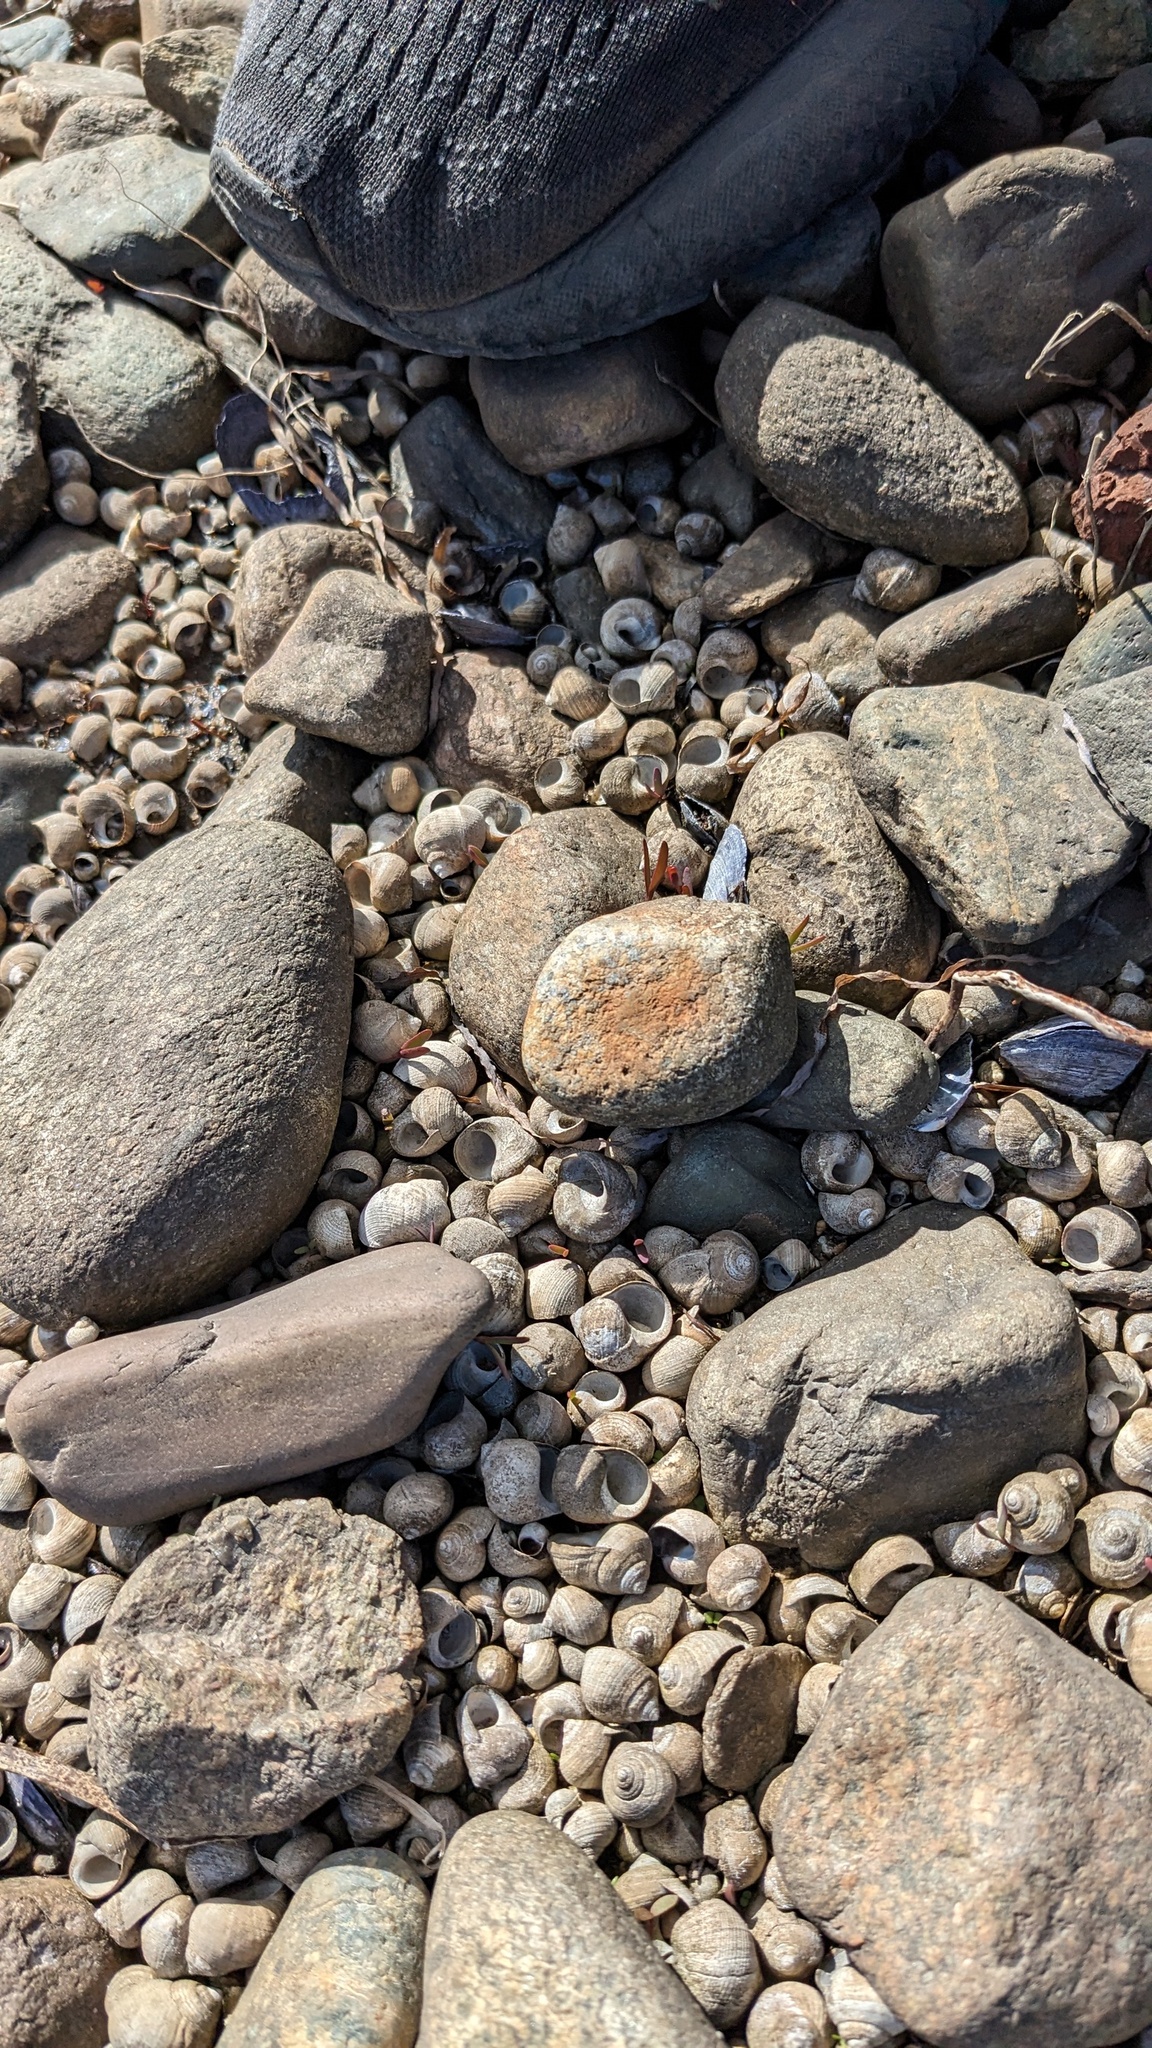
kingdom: Animalia
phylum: Mollusca
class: Gastropoda
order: Littorinimorpha
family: Littorinidae
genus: Littorina
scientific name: Littorina littorea
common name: Common periwinkle
